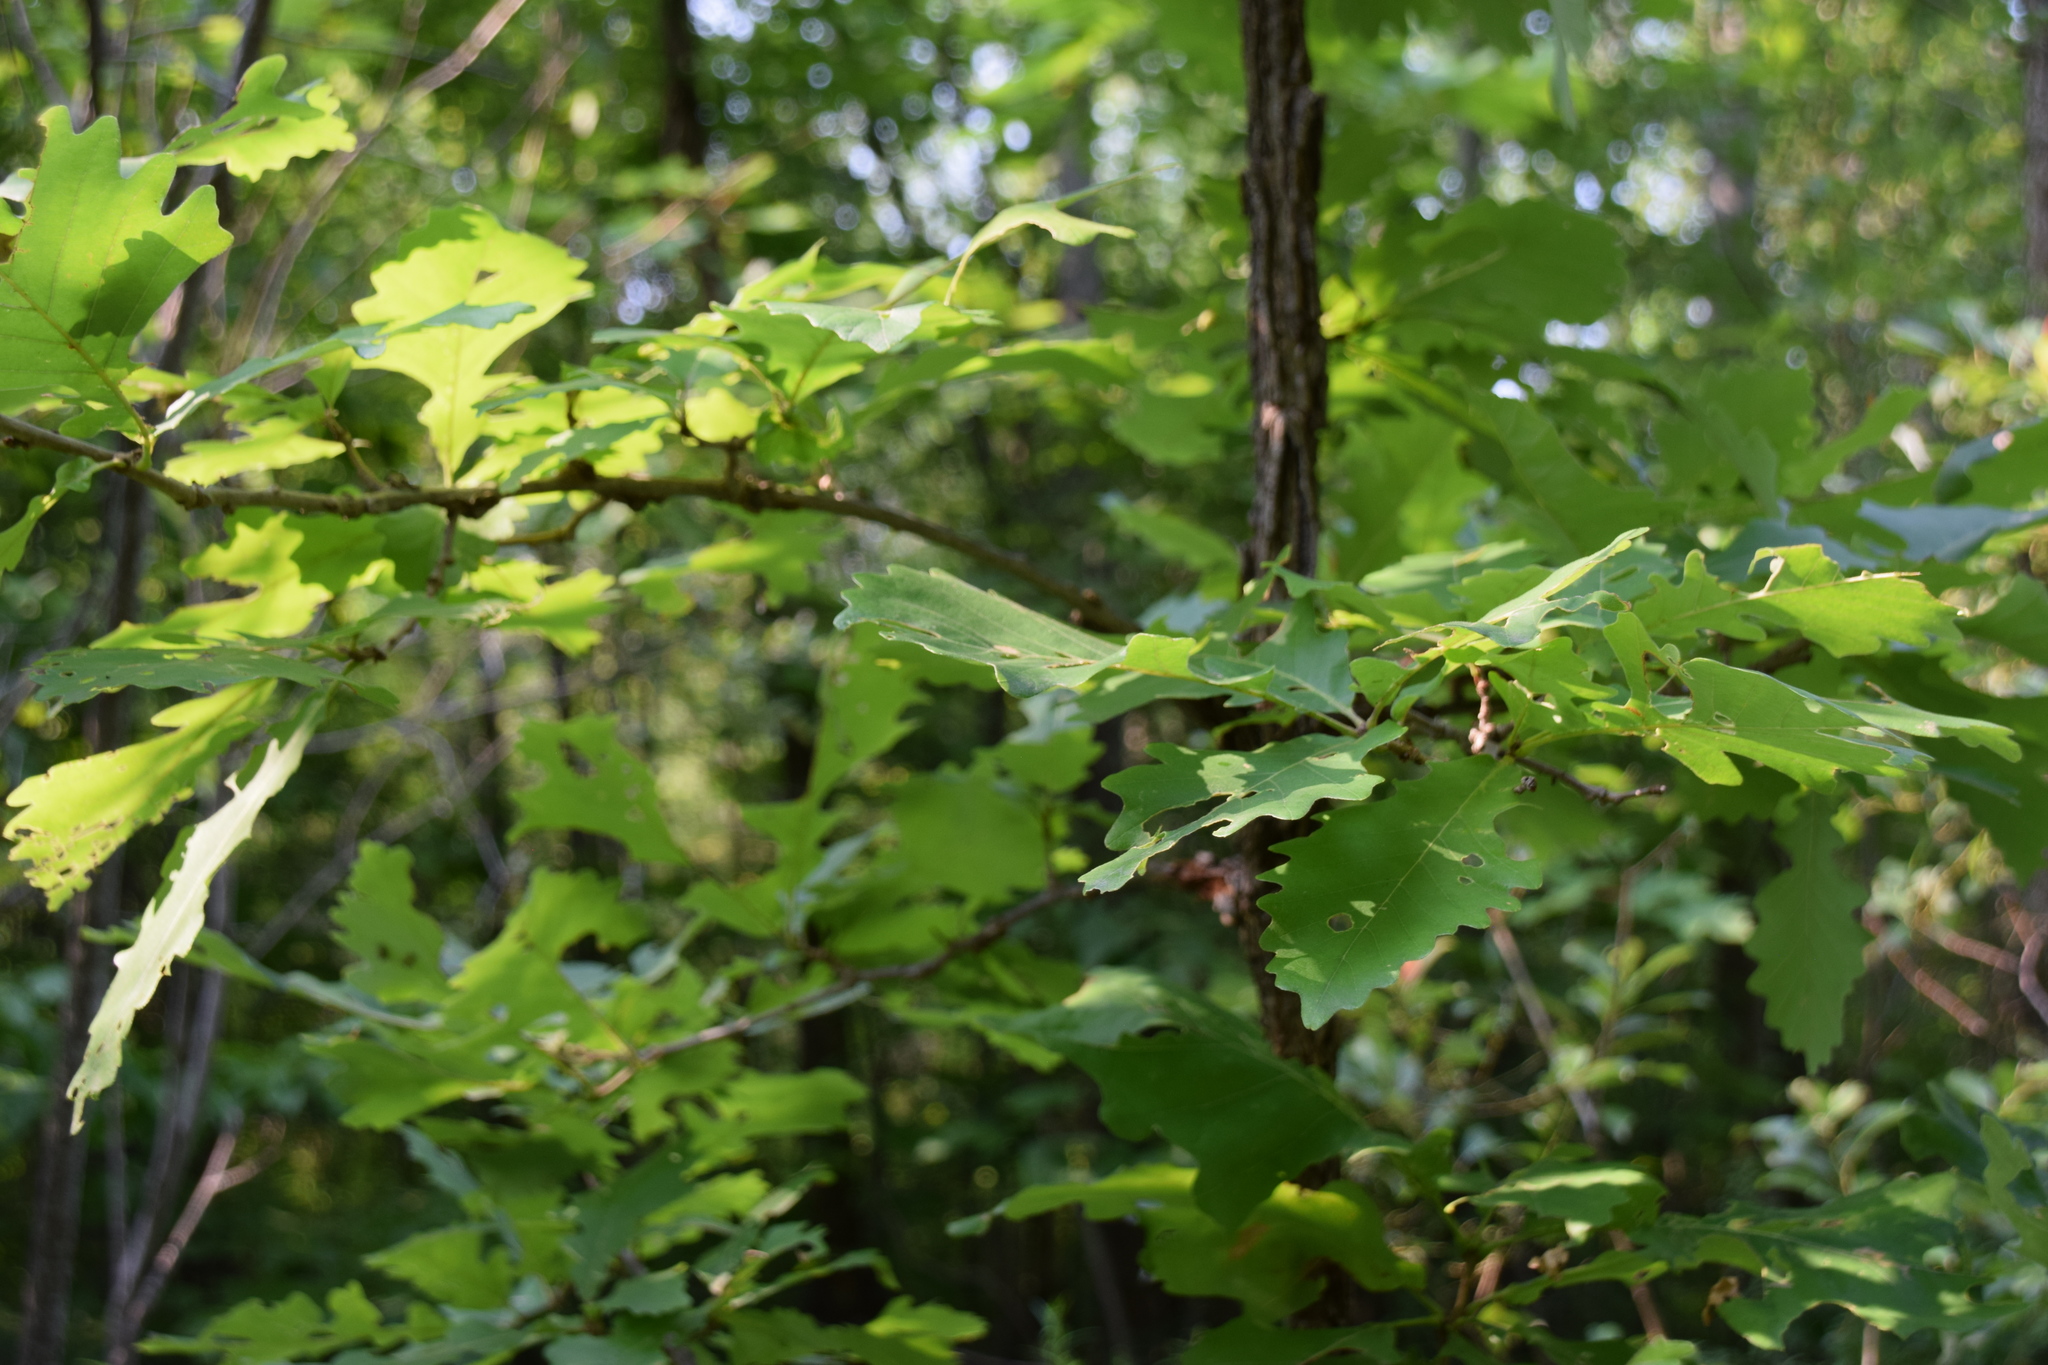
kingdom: Plantae
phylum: Tracheophyta
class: Magnoliopsida
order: Fagales
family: Fagaceae
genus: Quercus
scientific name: Quercus macrocarpa
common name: Bur oak
